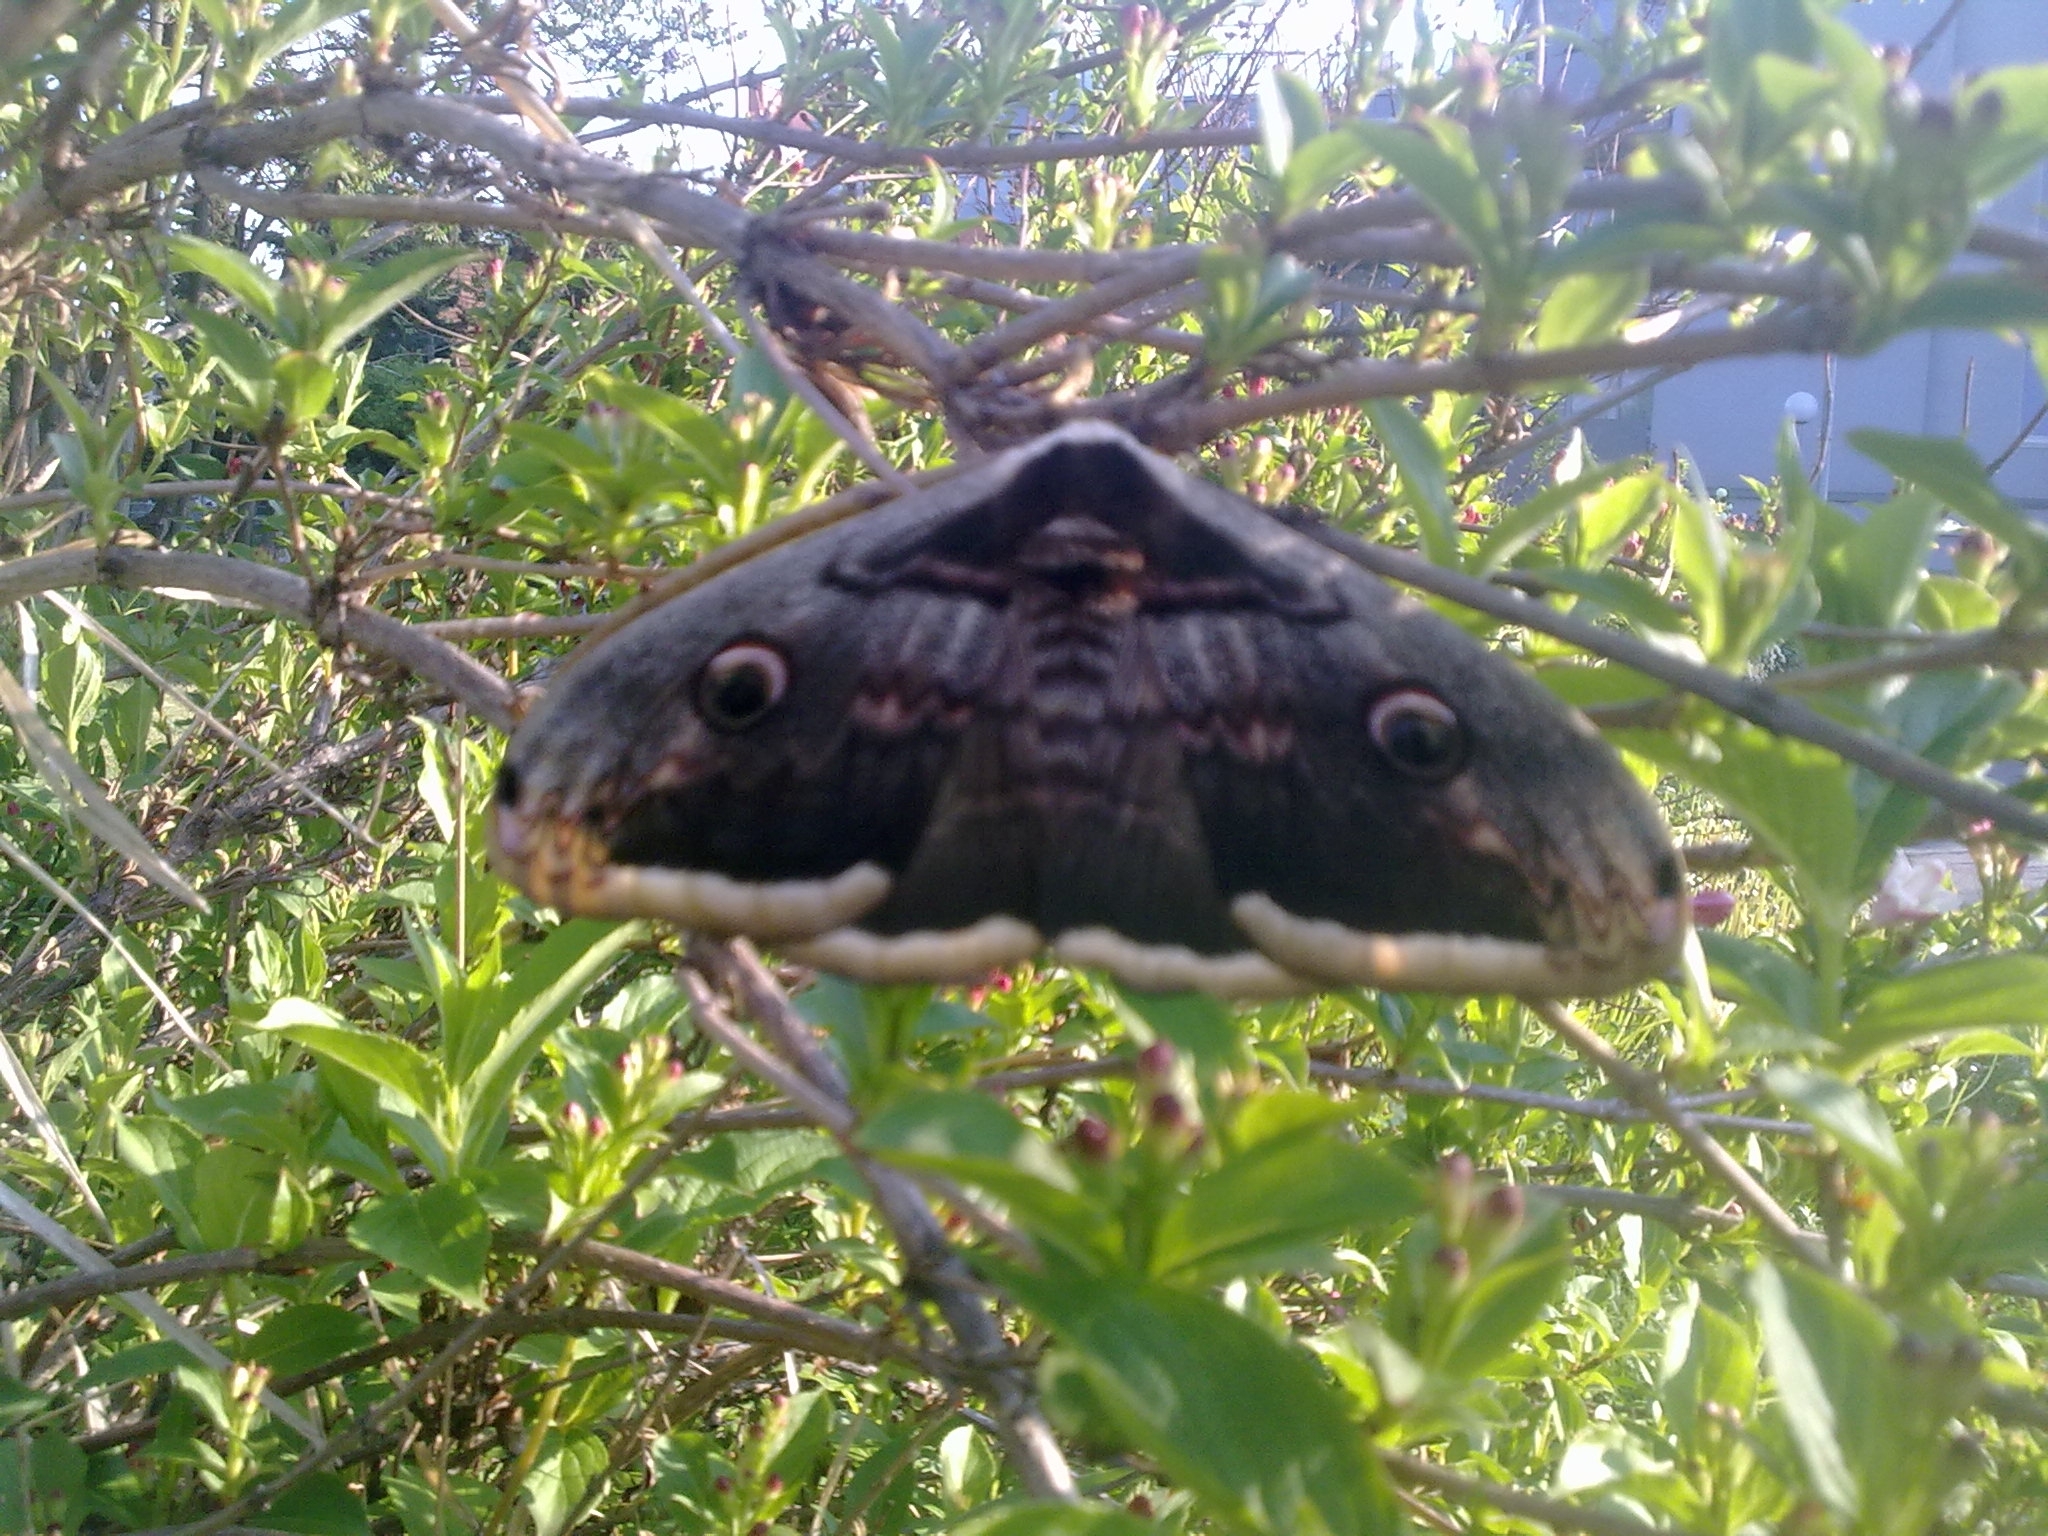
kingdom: Animalia
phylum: Arthropoda
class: Insecta
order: Lepidoptera
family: Saturniidae
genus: Saturnia
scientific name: Saturnia pyri
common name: Great peacock moth
